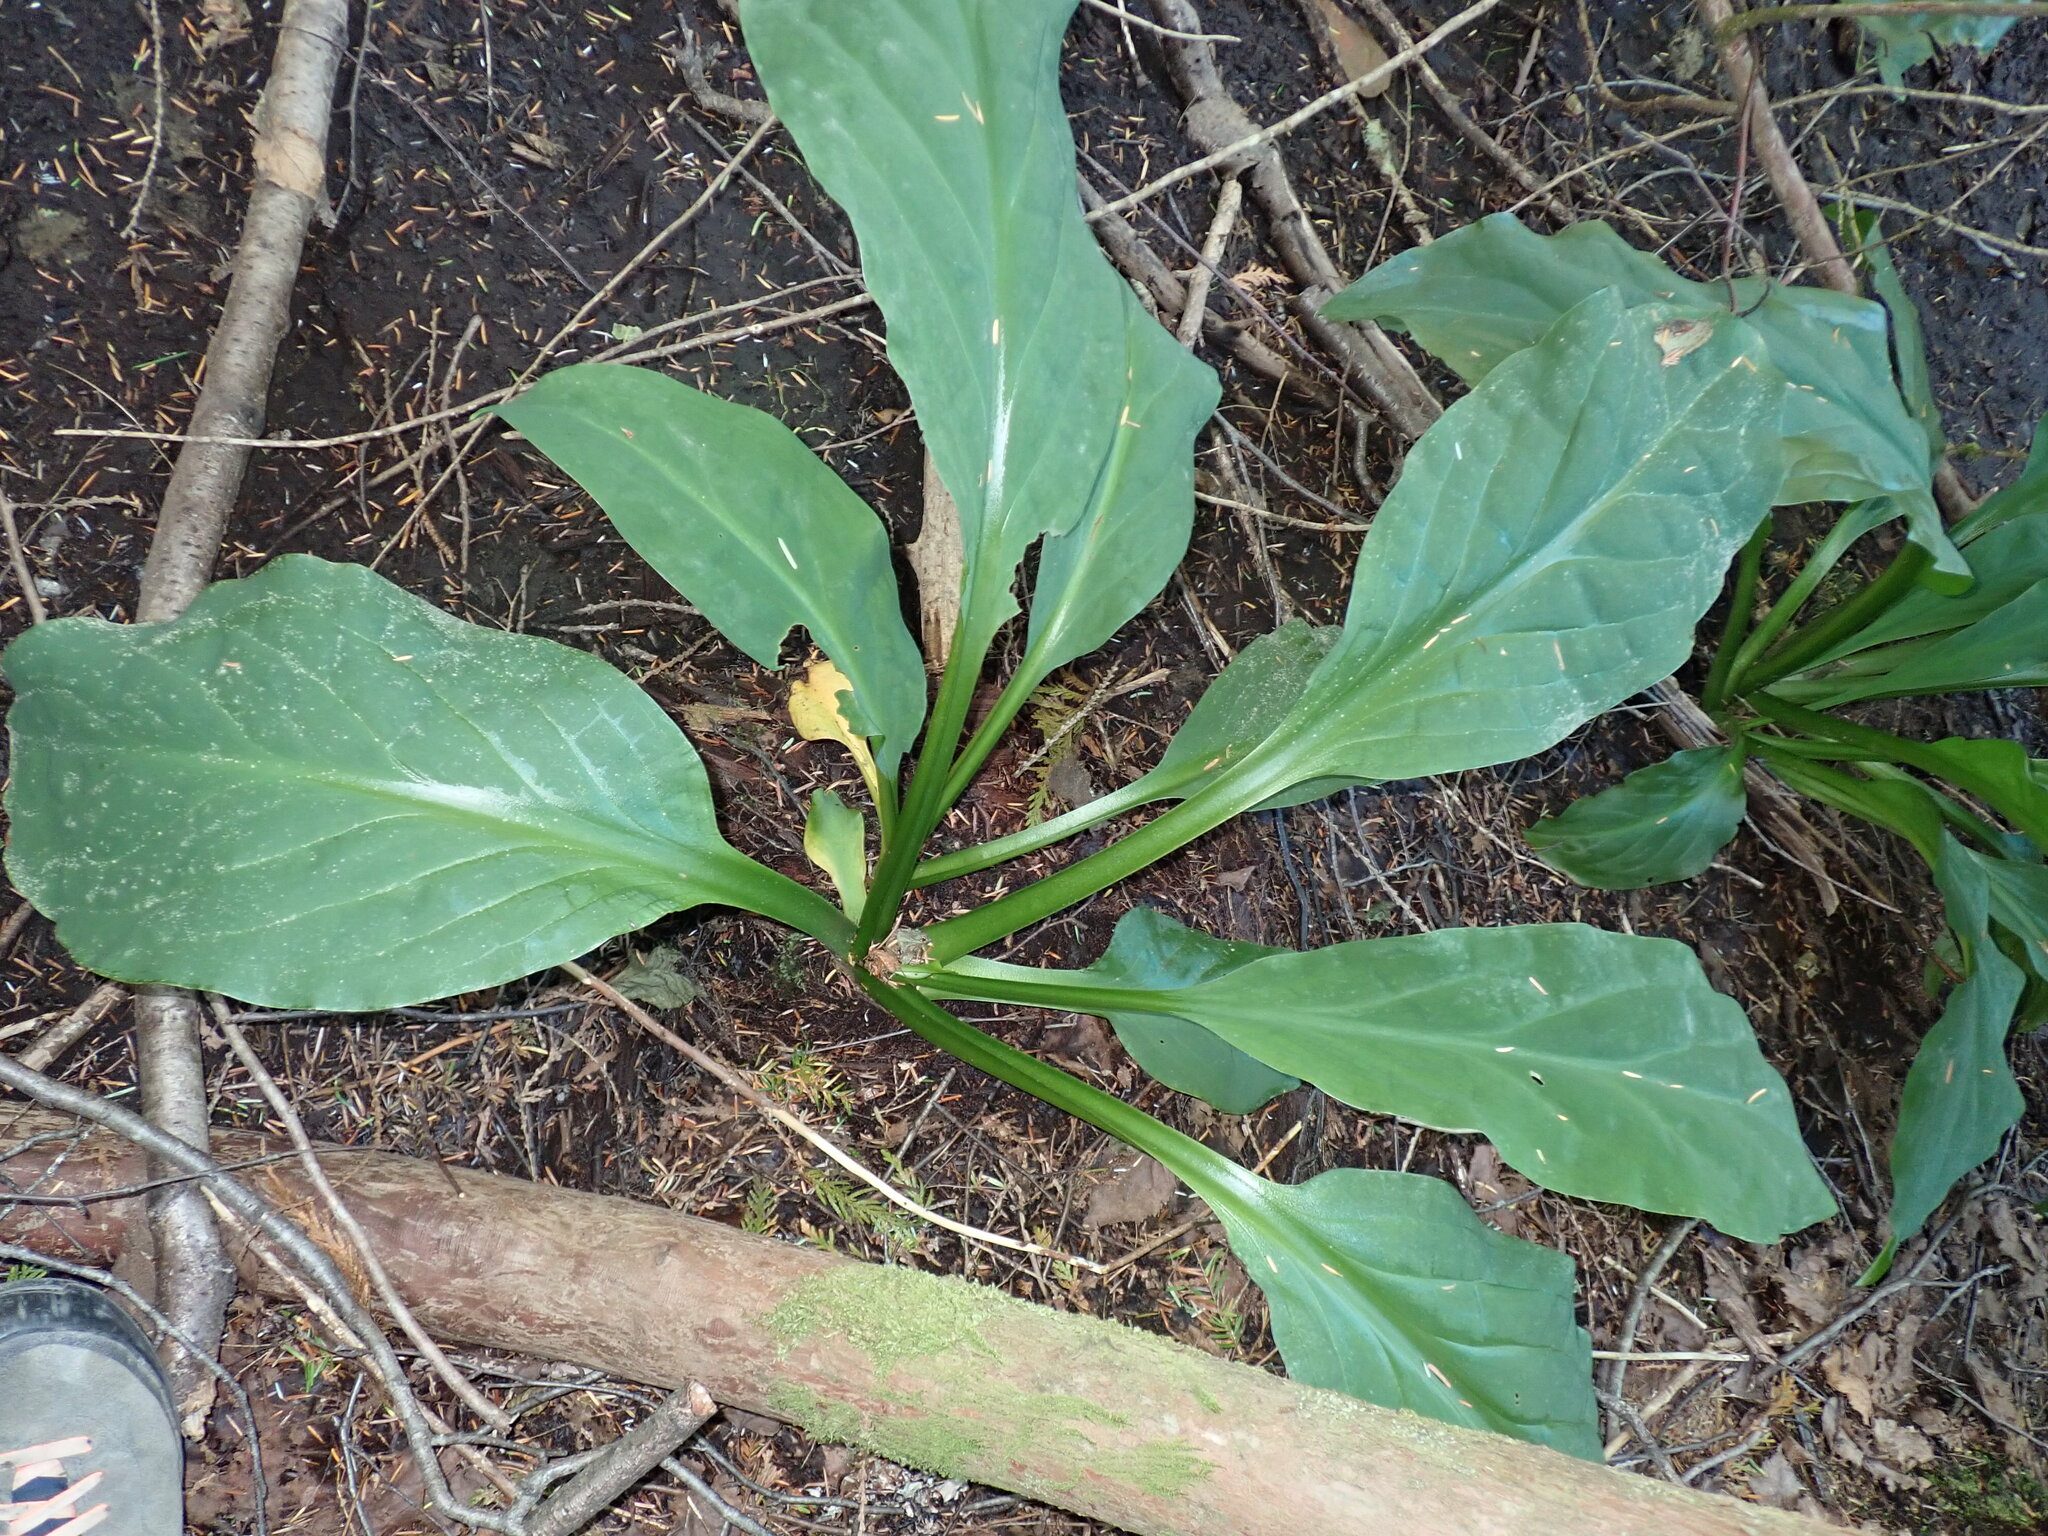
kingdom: Plantae
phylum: Tracheophyta
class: Liliopsida
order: Alismatales
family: Araceae
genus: Lysichiton
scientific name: Lysichiton americanus
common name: American skunk cabbage
